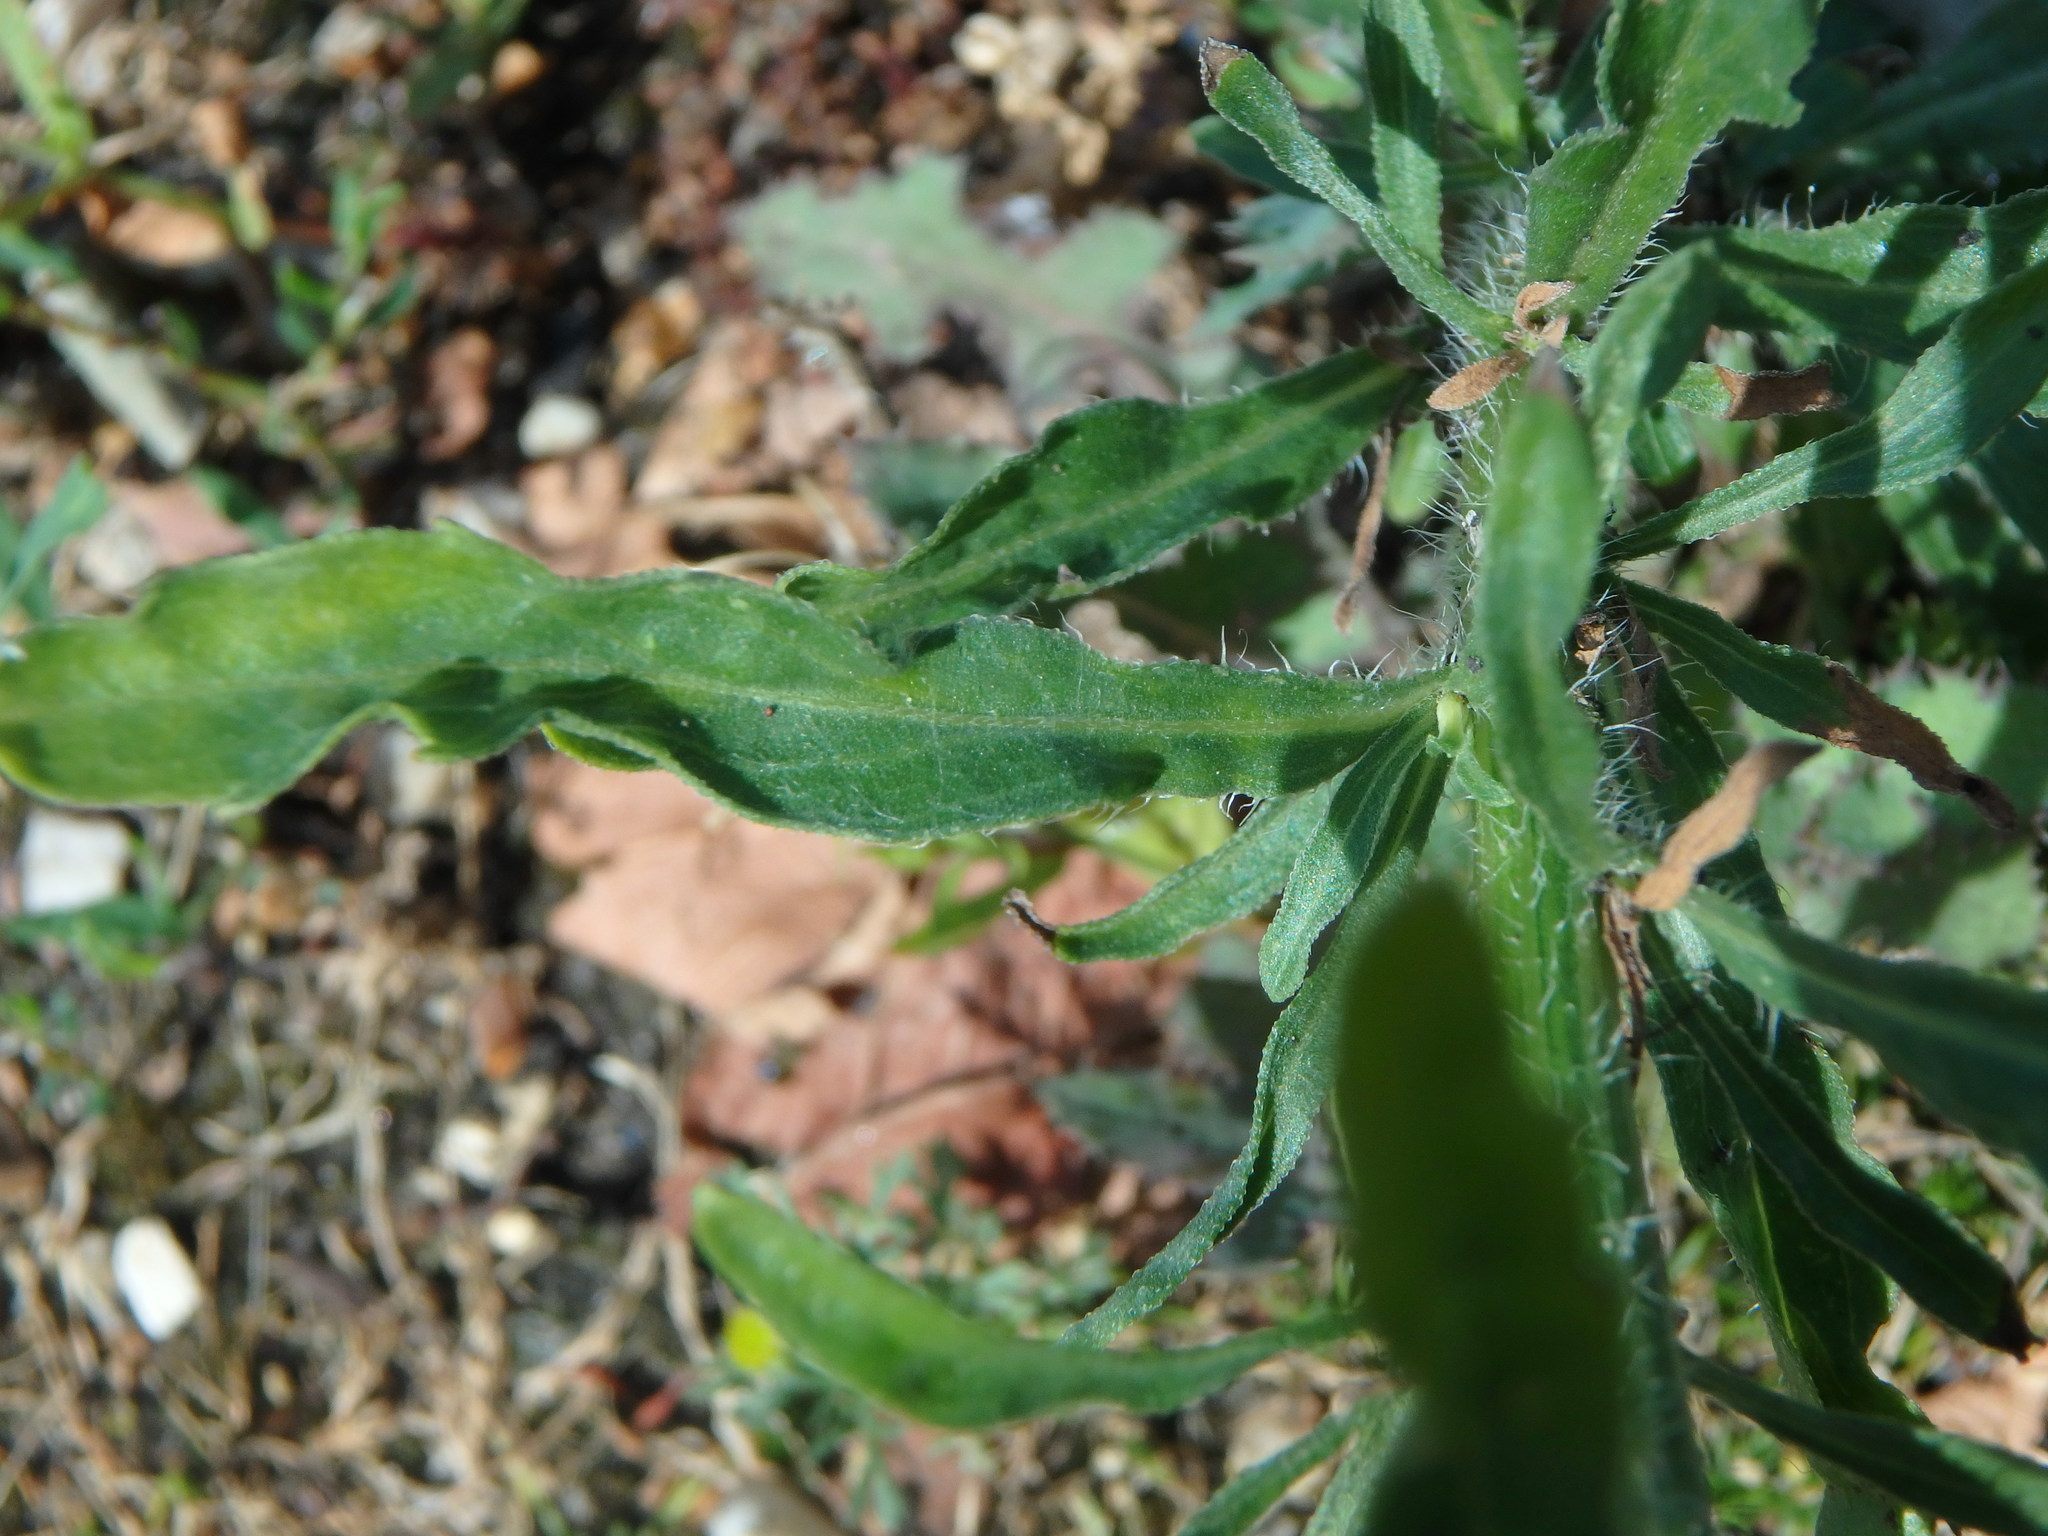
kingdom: Plantae
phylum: Tracheophyta
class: Magnoliopsida
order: Asterales
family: Asteraceae
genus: Erigeron
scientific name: Erigeron canadensis
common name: Canadian fleabane
